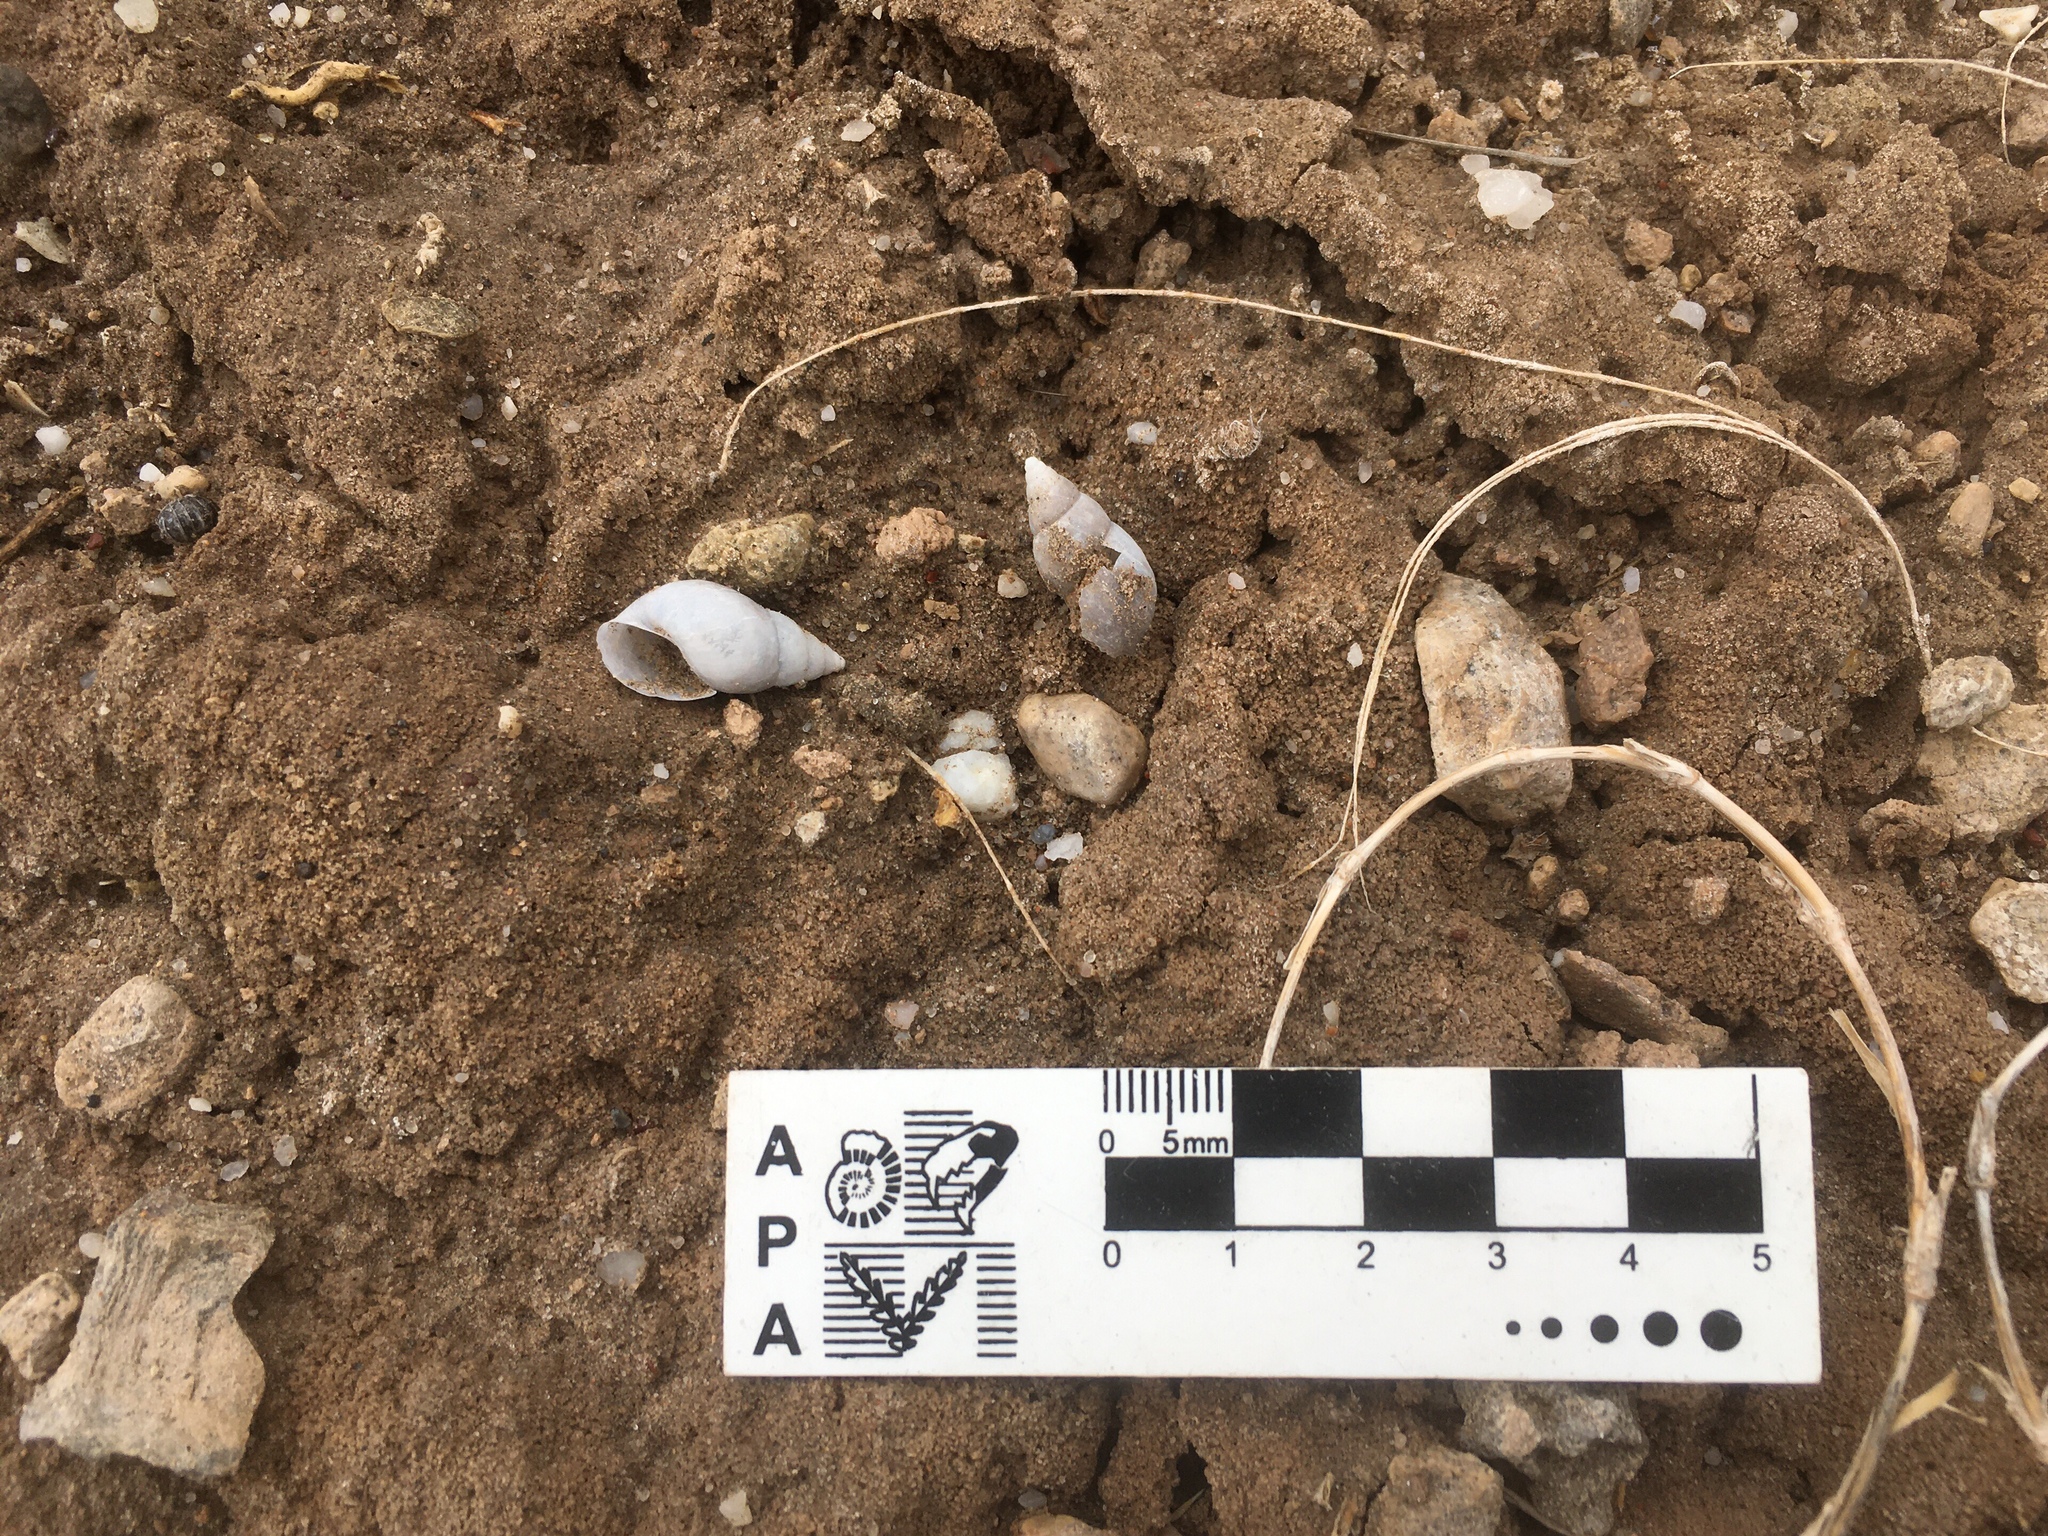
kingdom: Animalia
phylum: Mollusca
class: Gastropoda
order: Stylommatophora
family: Bulimulidae
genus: Bulimulus
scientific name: Bulimulus bonariensis
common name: Snail
